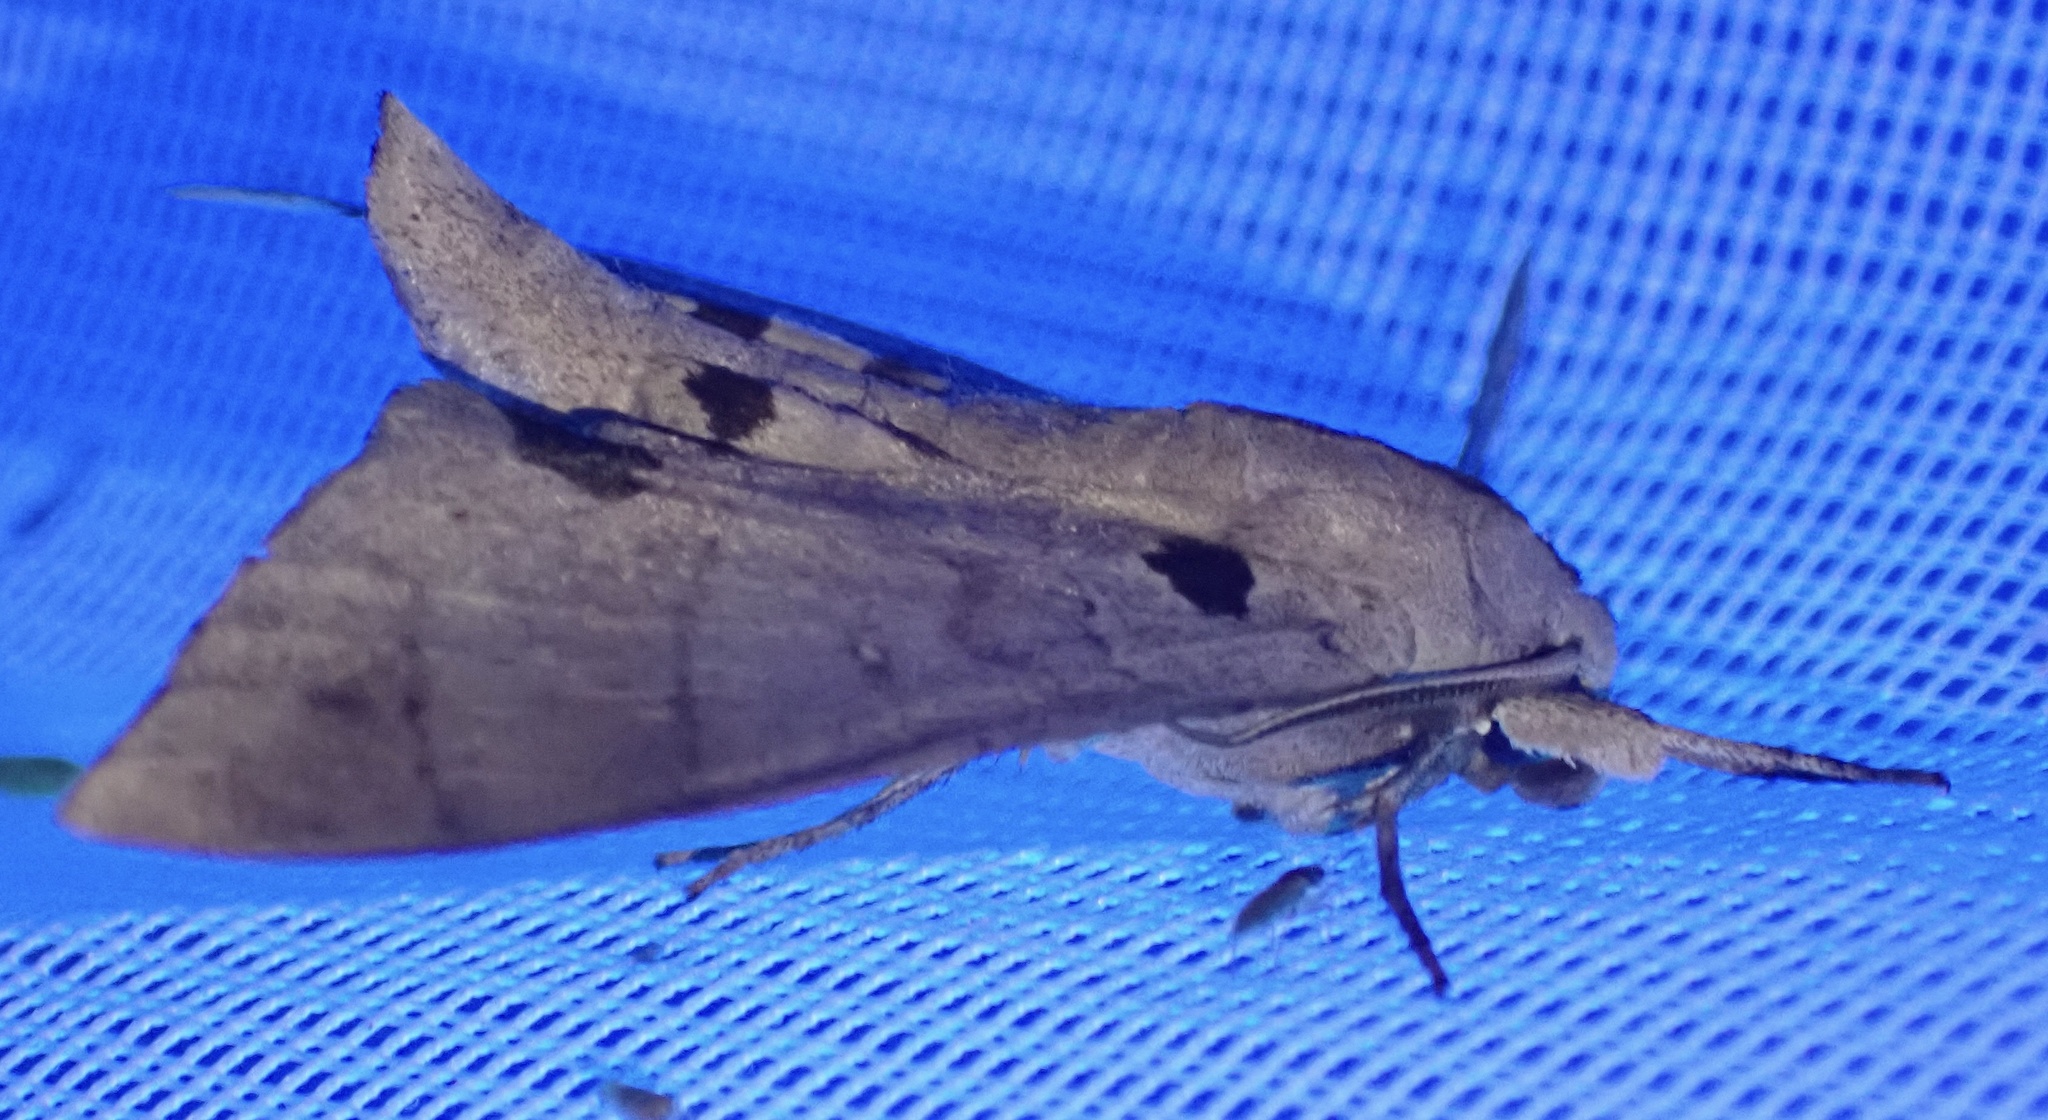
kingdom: Animalia
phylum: Arthropoda
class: Insecta
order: Lepidoptera
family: Sphingidae
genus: Polyptychus
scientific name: Polyptychus carteri
